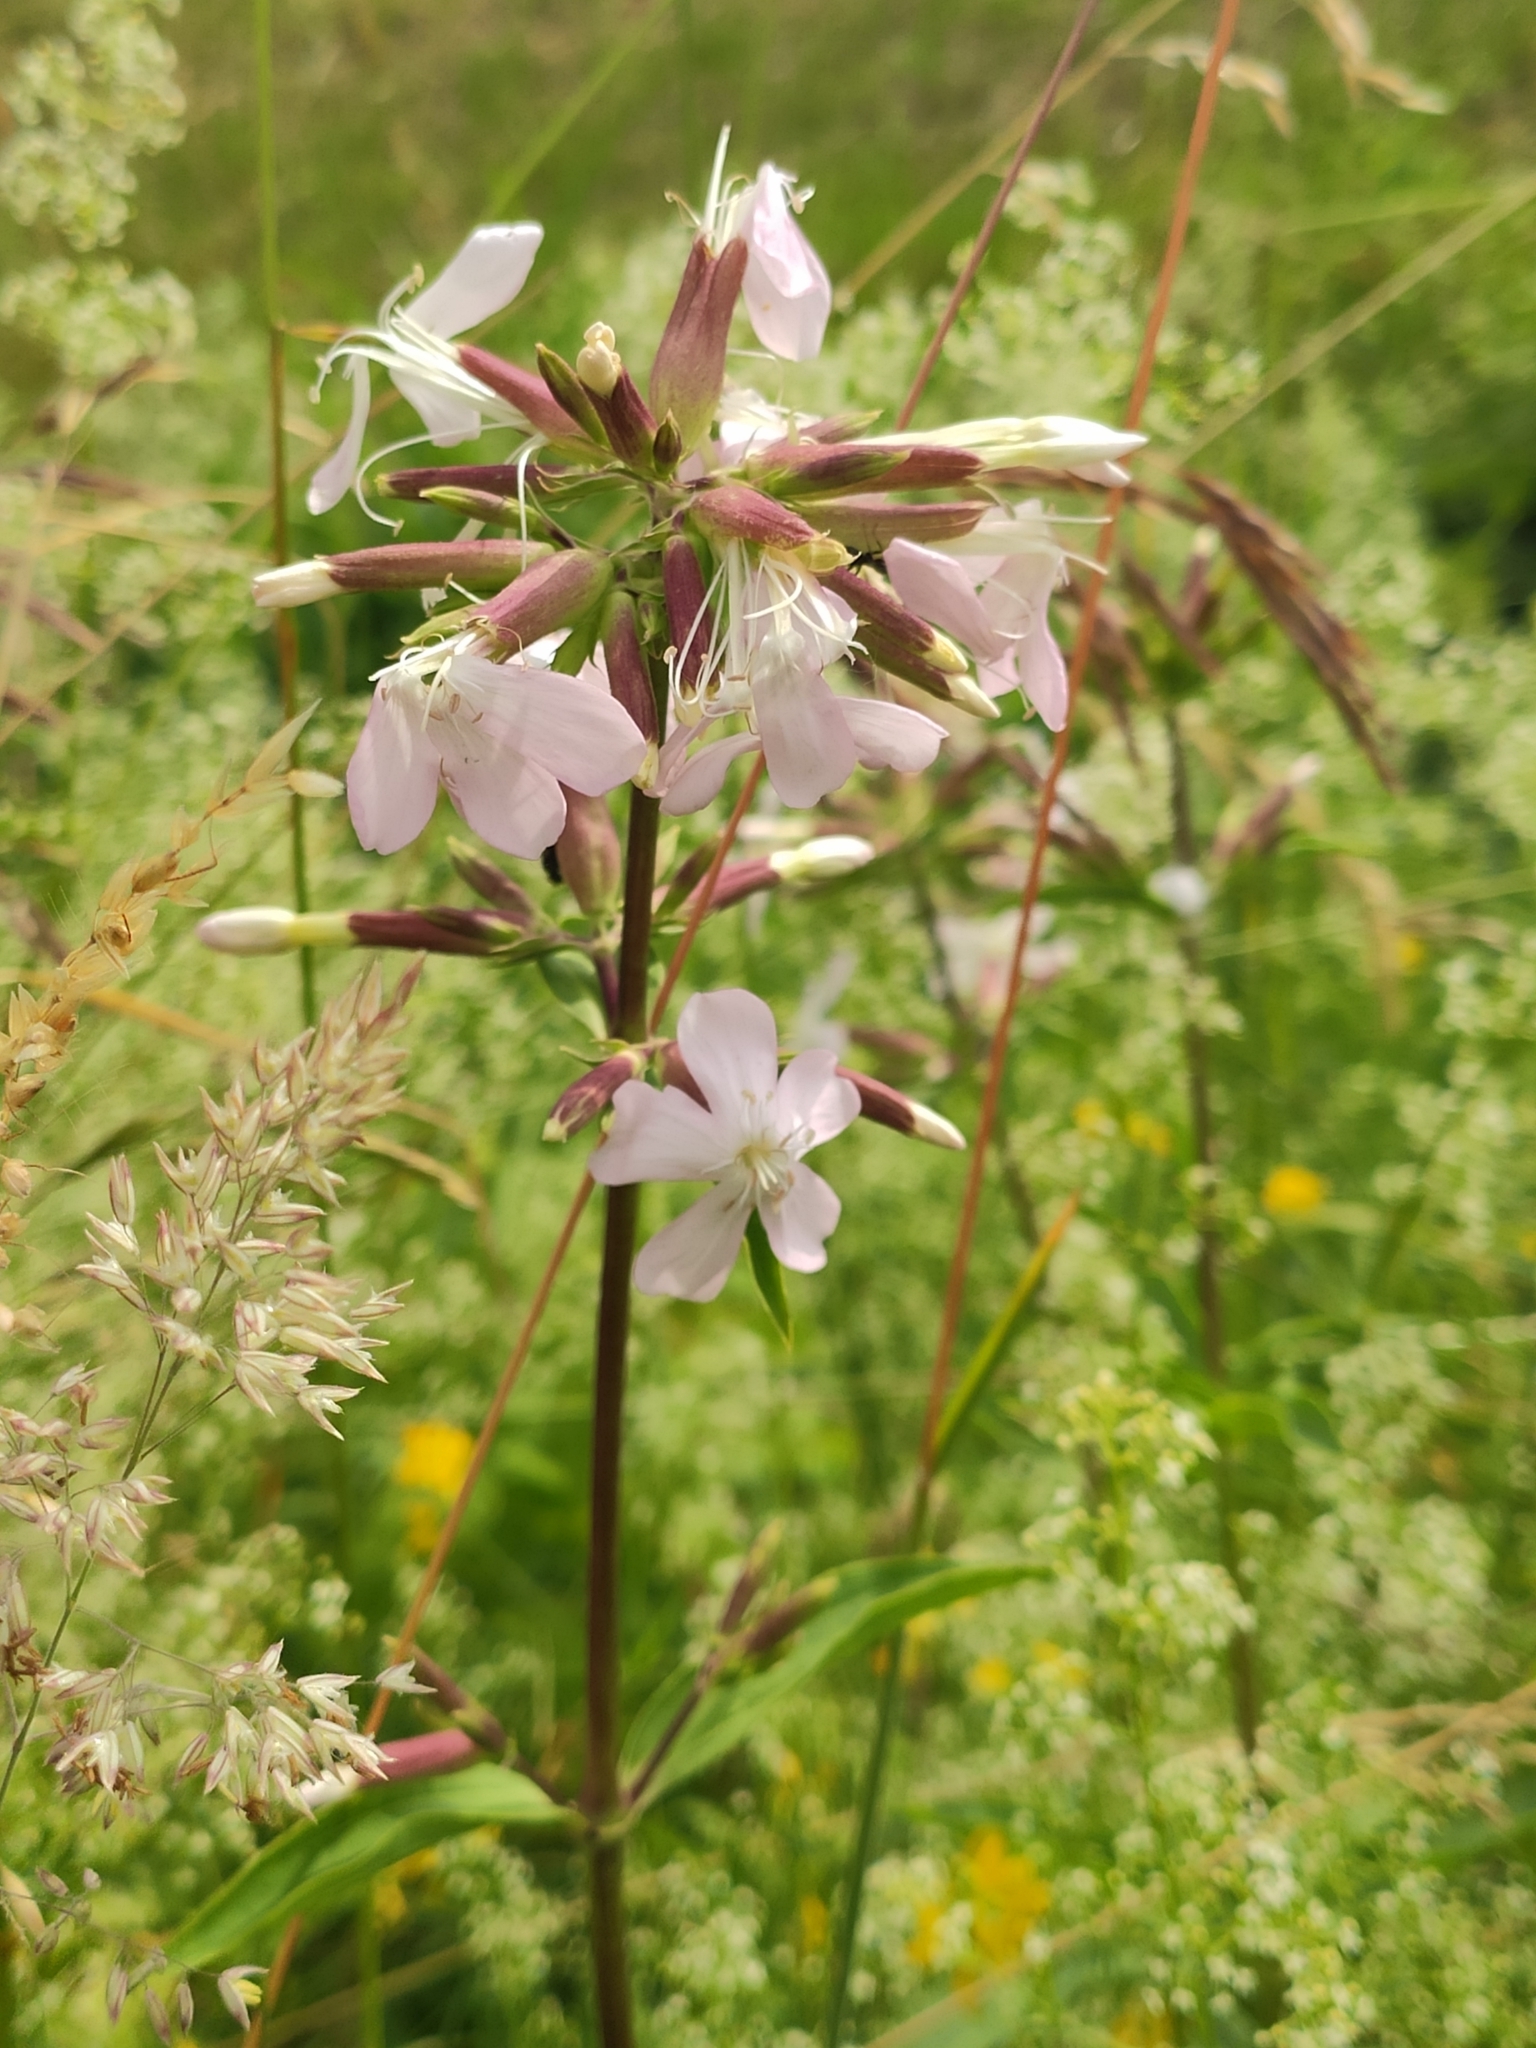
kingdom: Plantae
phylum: Tracheophyta
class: Magnoliopsida
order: Caryophyllales
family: Caryophyllaceae
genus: Saponaria
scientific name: Saponaria officinalis
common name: Soapwort
